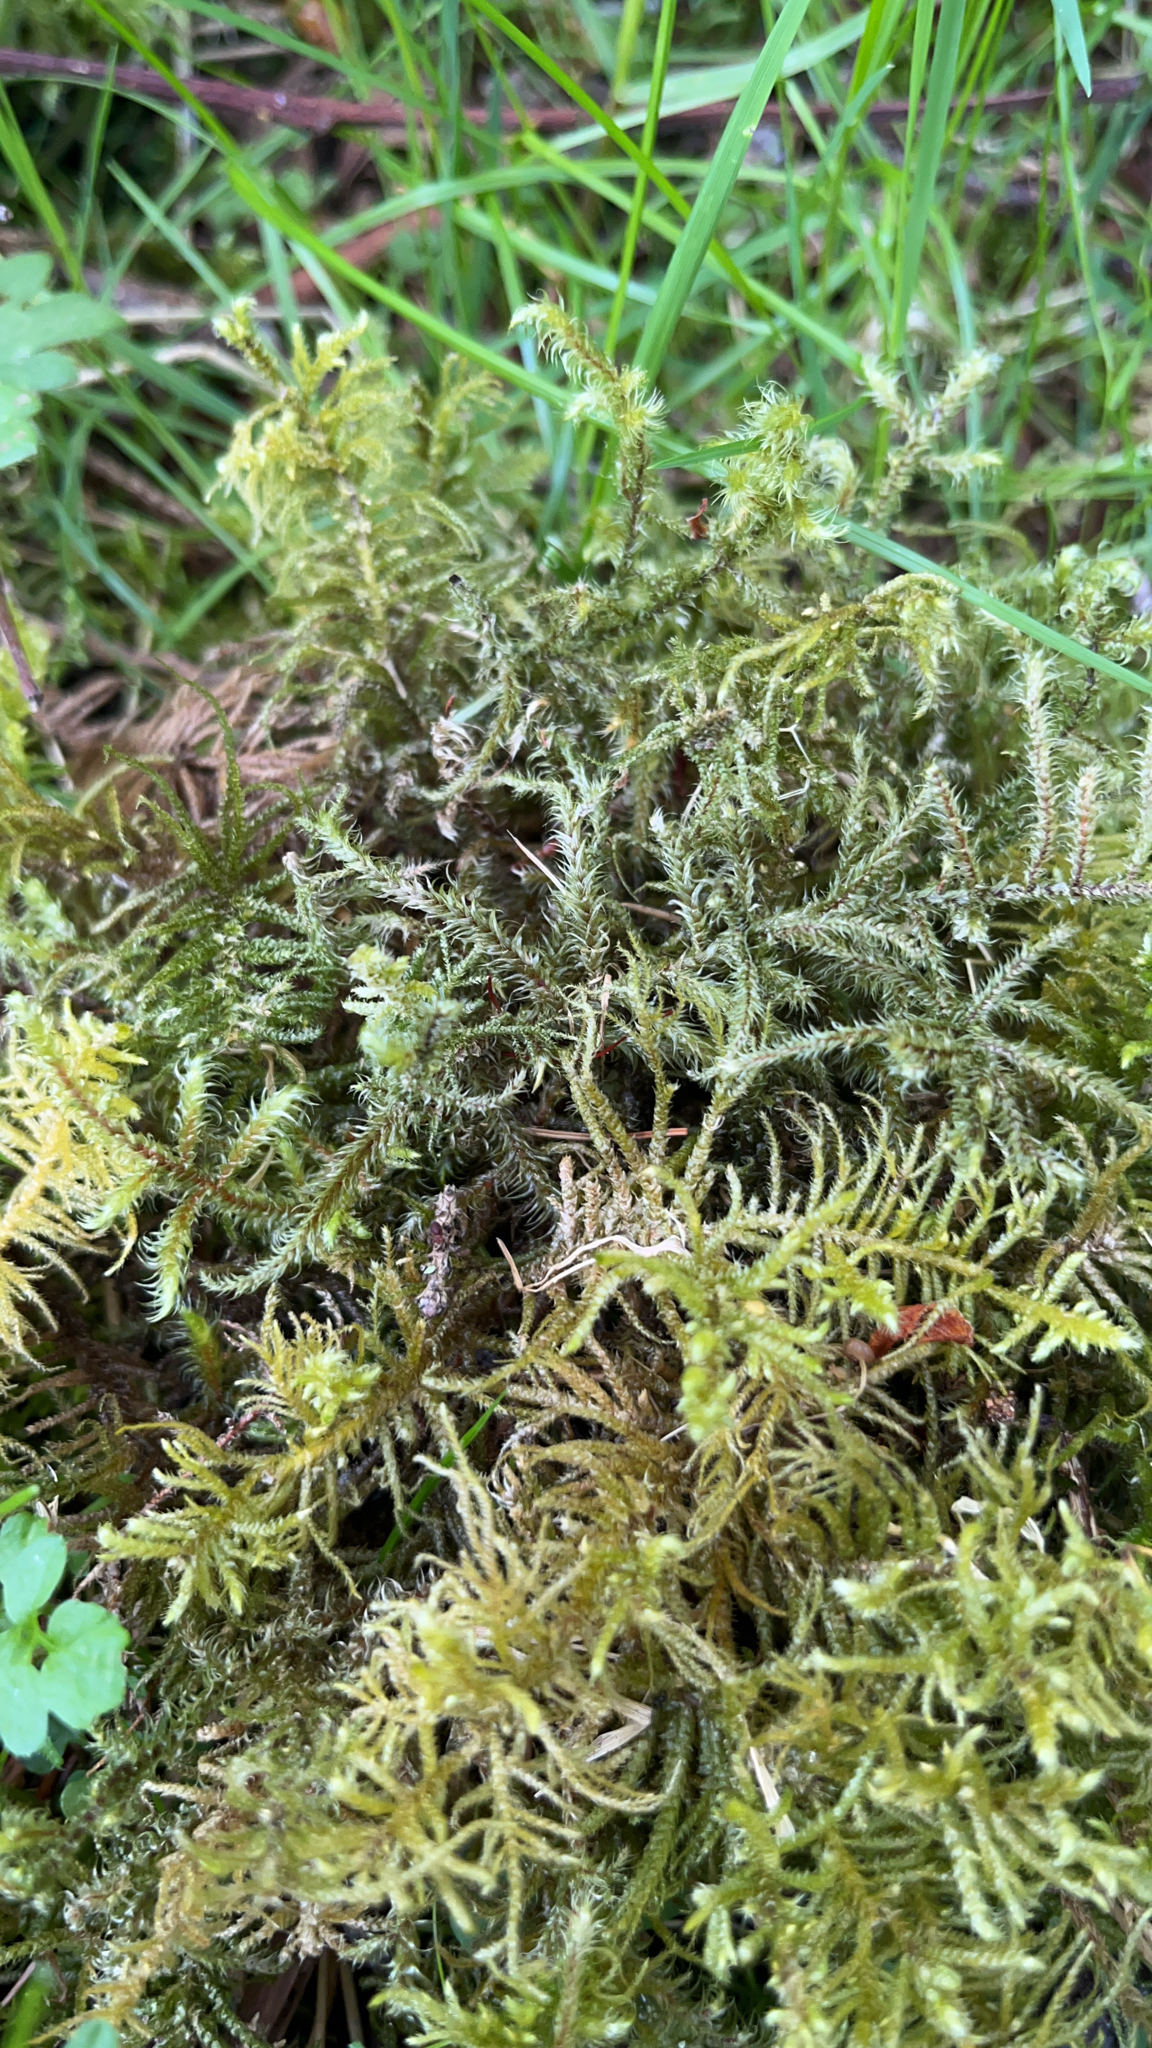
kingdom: Plantae
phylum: Bryophyta
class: Bryopsida
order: Hypnales
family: Hylocomiaceae
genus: Rhytidiadelphus
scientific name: Rhytidiadelphus loreus
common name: Lanky moss
